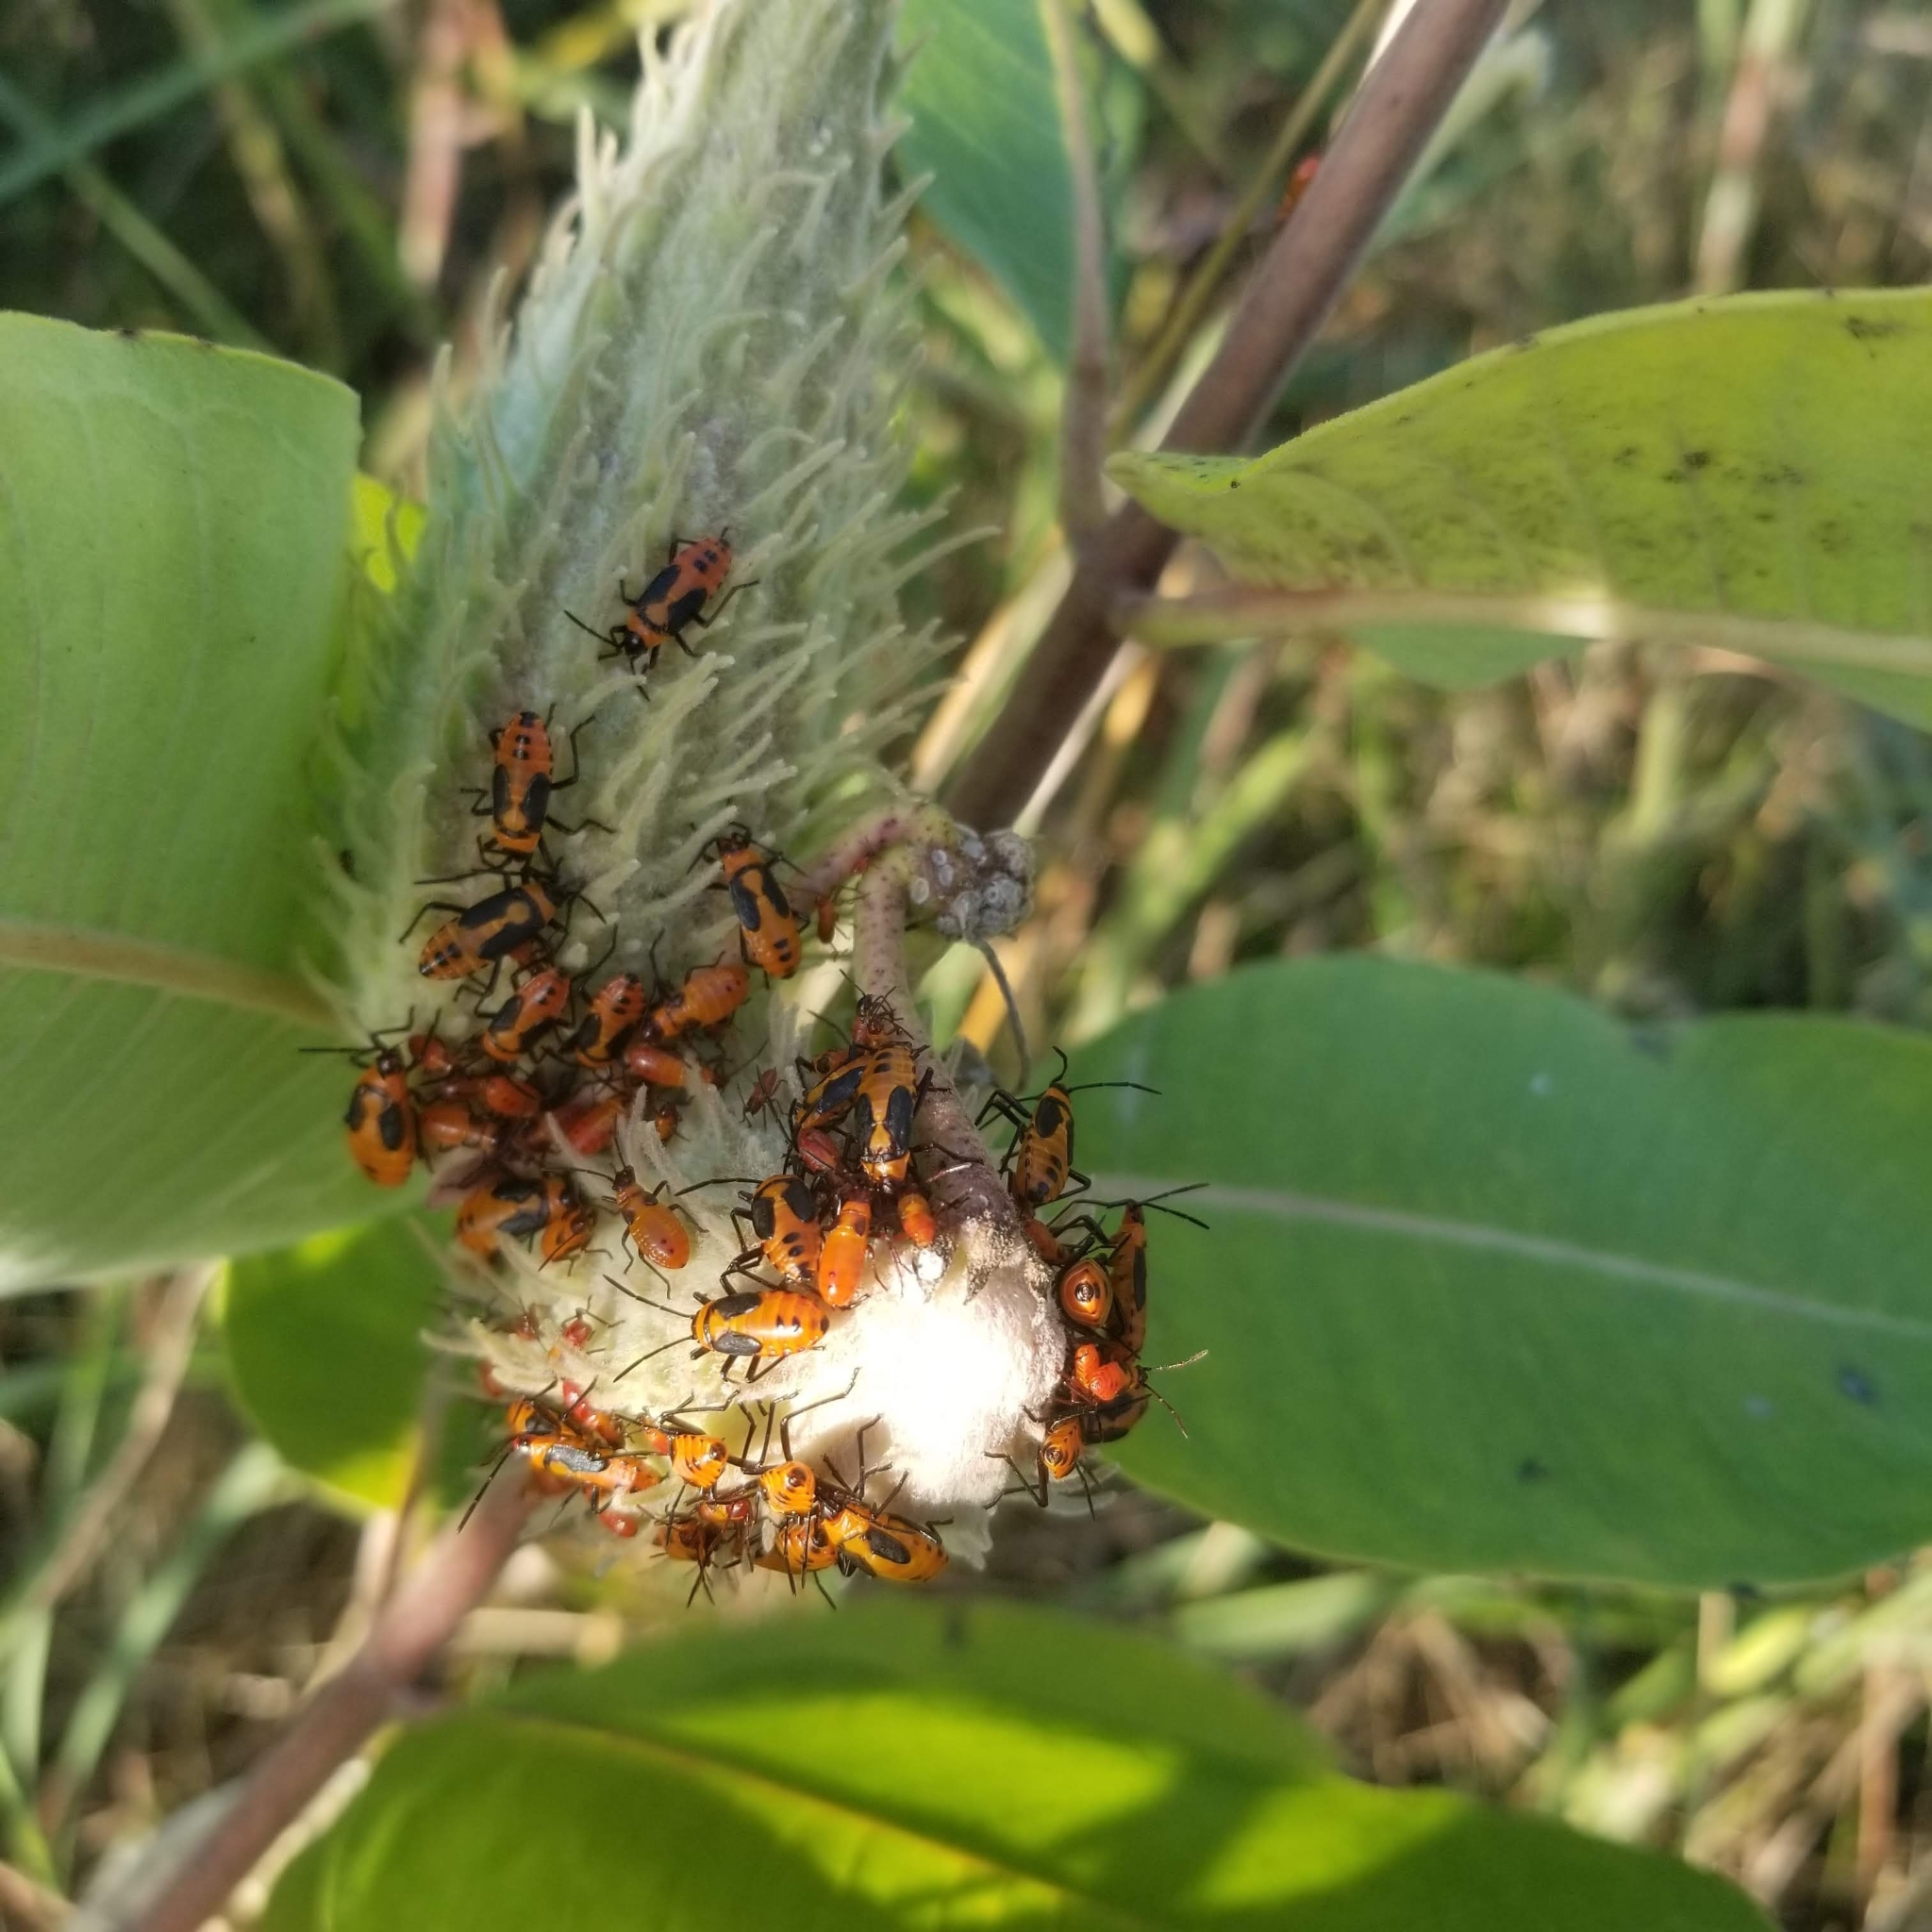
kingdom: Animalia
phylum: Arthropoda
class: Insecta
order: Hemiptera
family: Lygaeidae
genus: Oncopeltus
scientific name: Oncopeltus fasciatus
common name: Large milkweed bug
